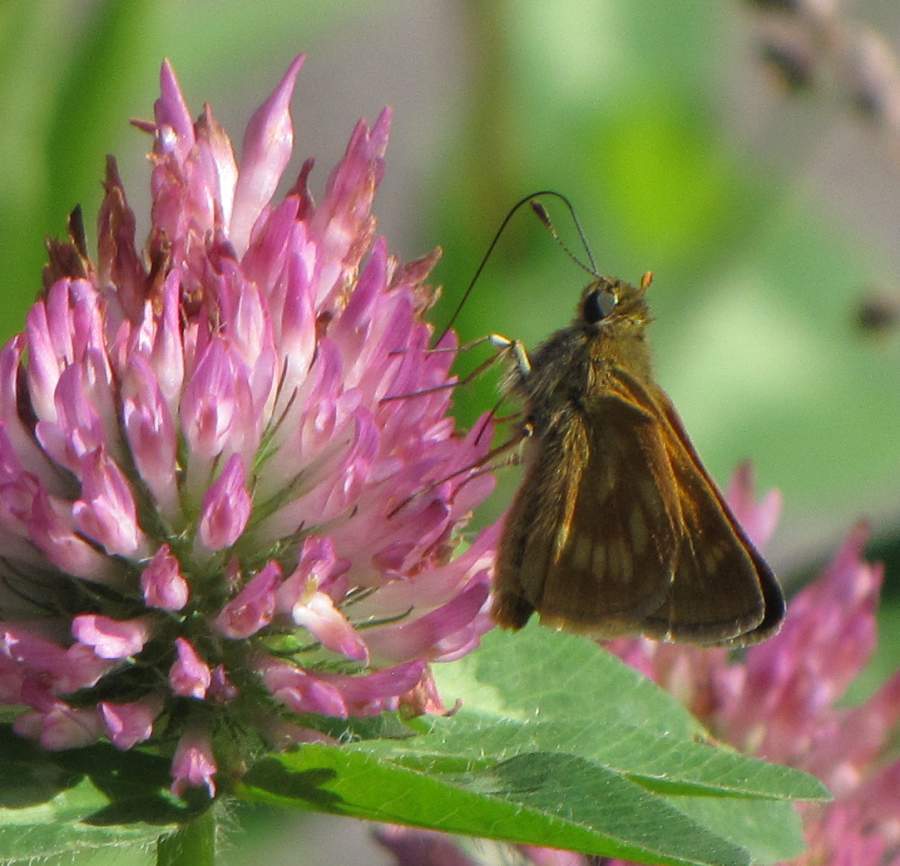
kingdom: Animalia
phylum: Arthropoda
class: Insecta
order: Lepidoptera
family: Hesperiidae
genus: Polites
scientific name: Polites mystic
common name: Long dash
